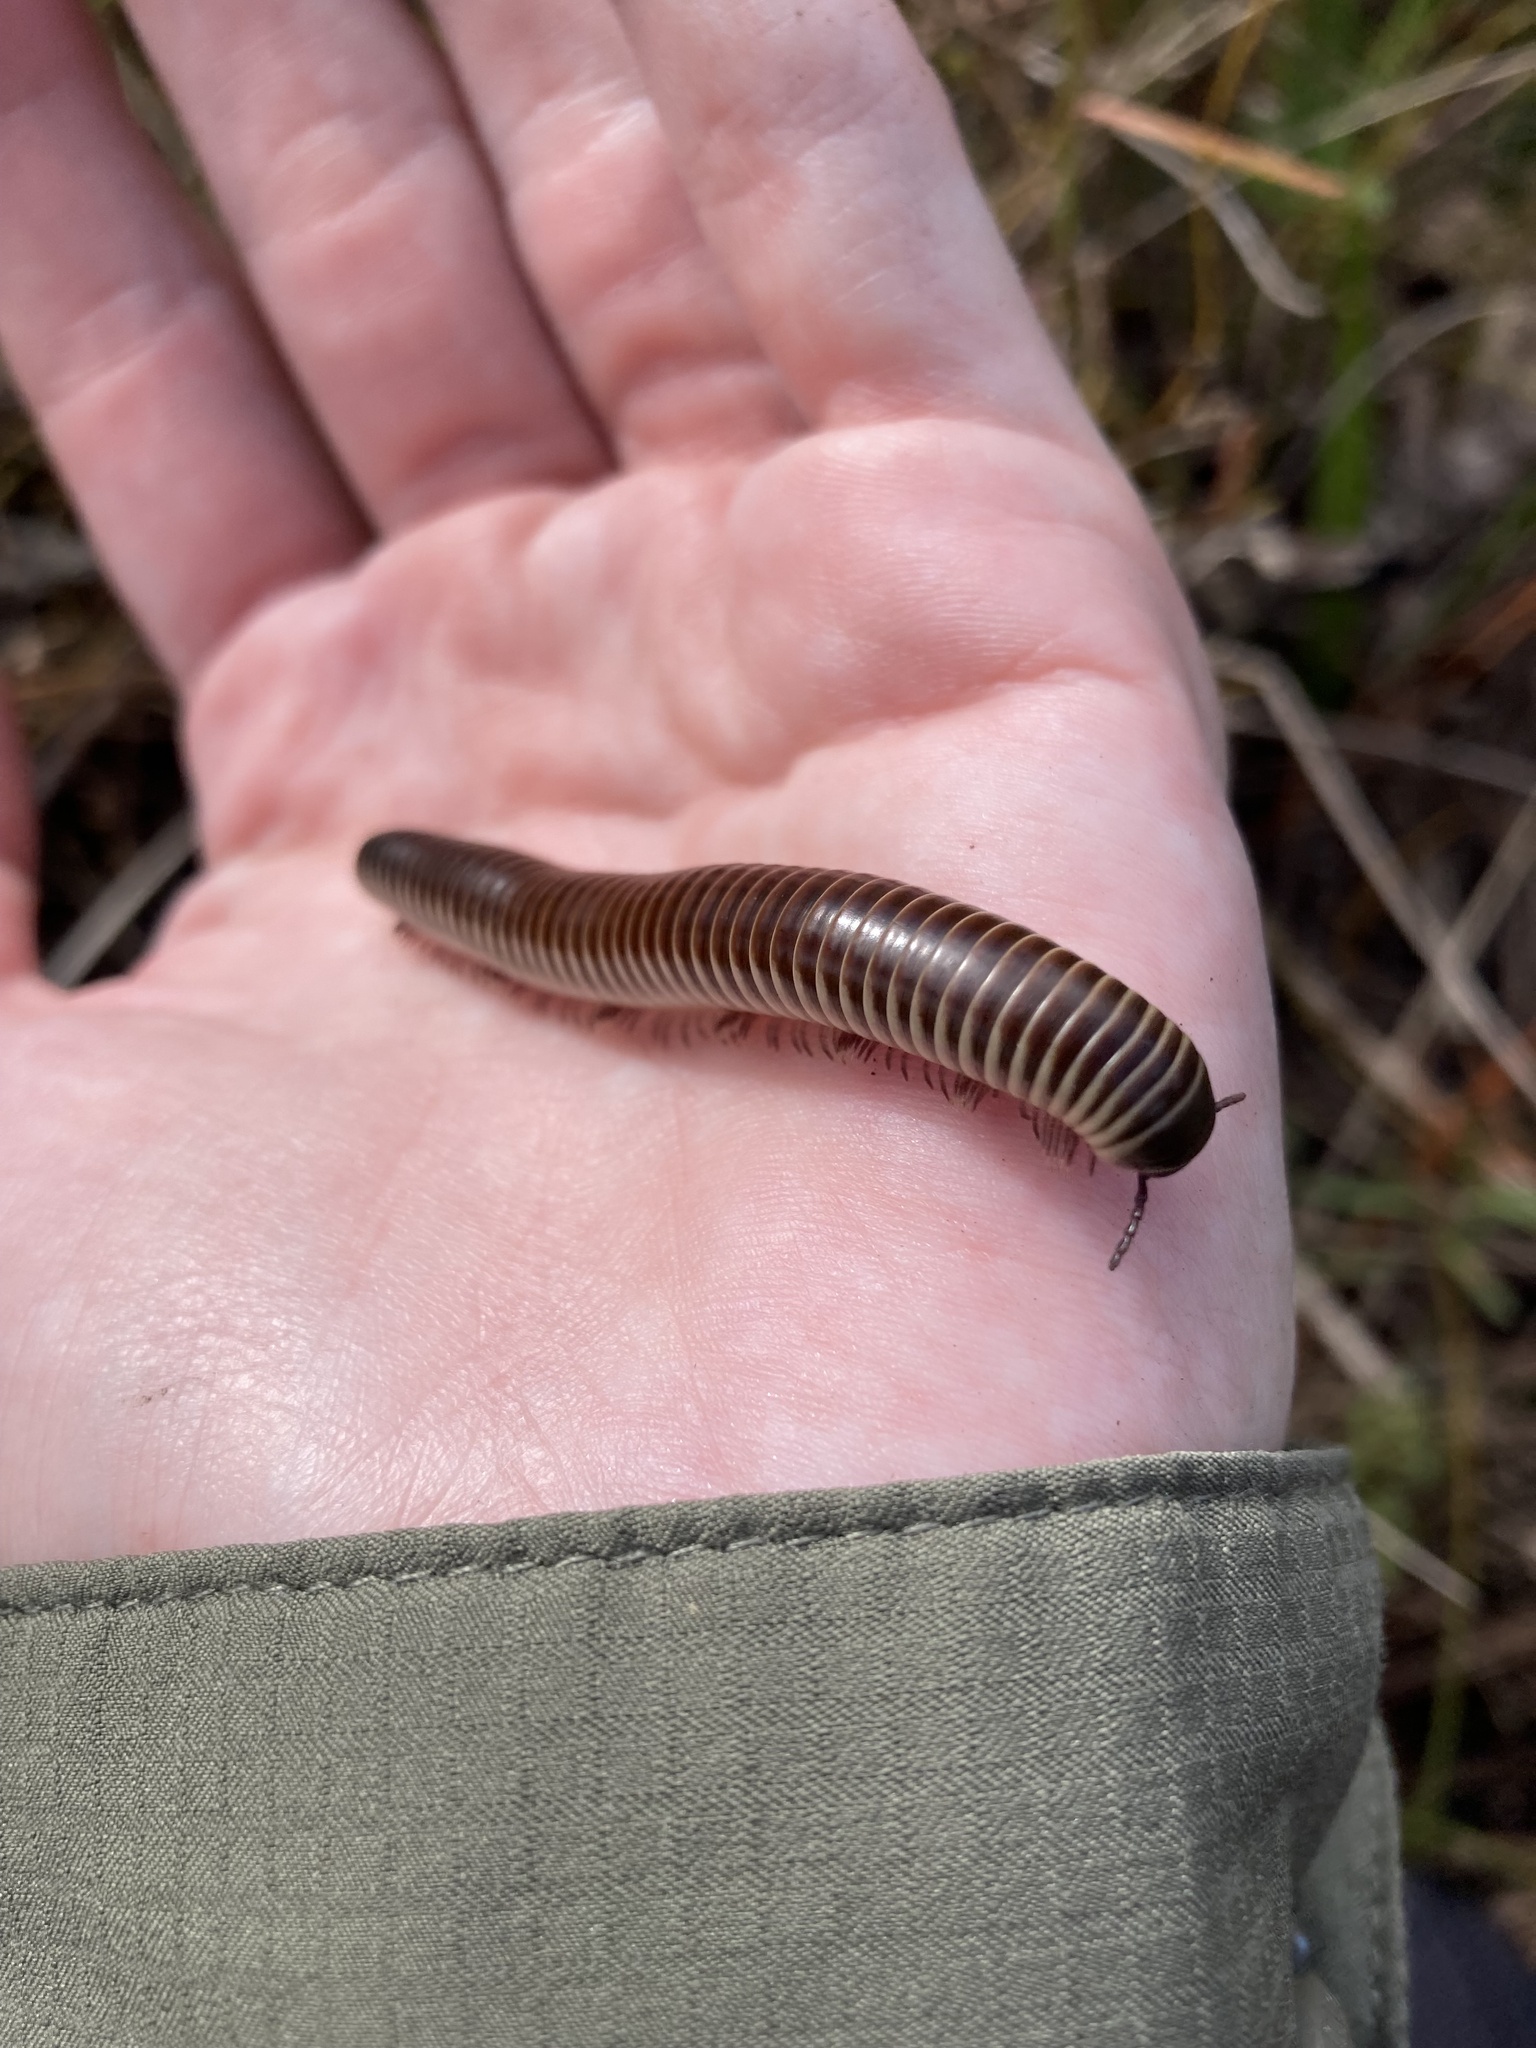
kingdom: Animalia
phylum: Arthropoda
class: Diplopoda
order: Spirobolida
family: Spirobolidae
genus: Chicobolus
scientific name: Chicobolus spinigerus
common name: Florida ivory millipede
